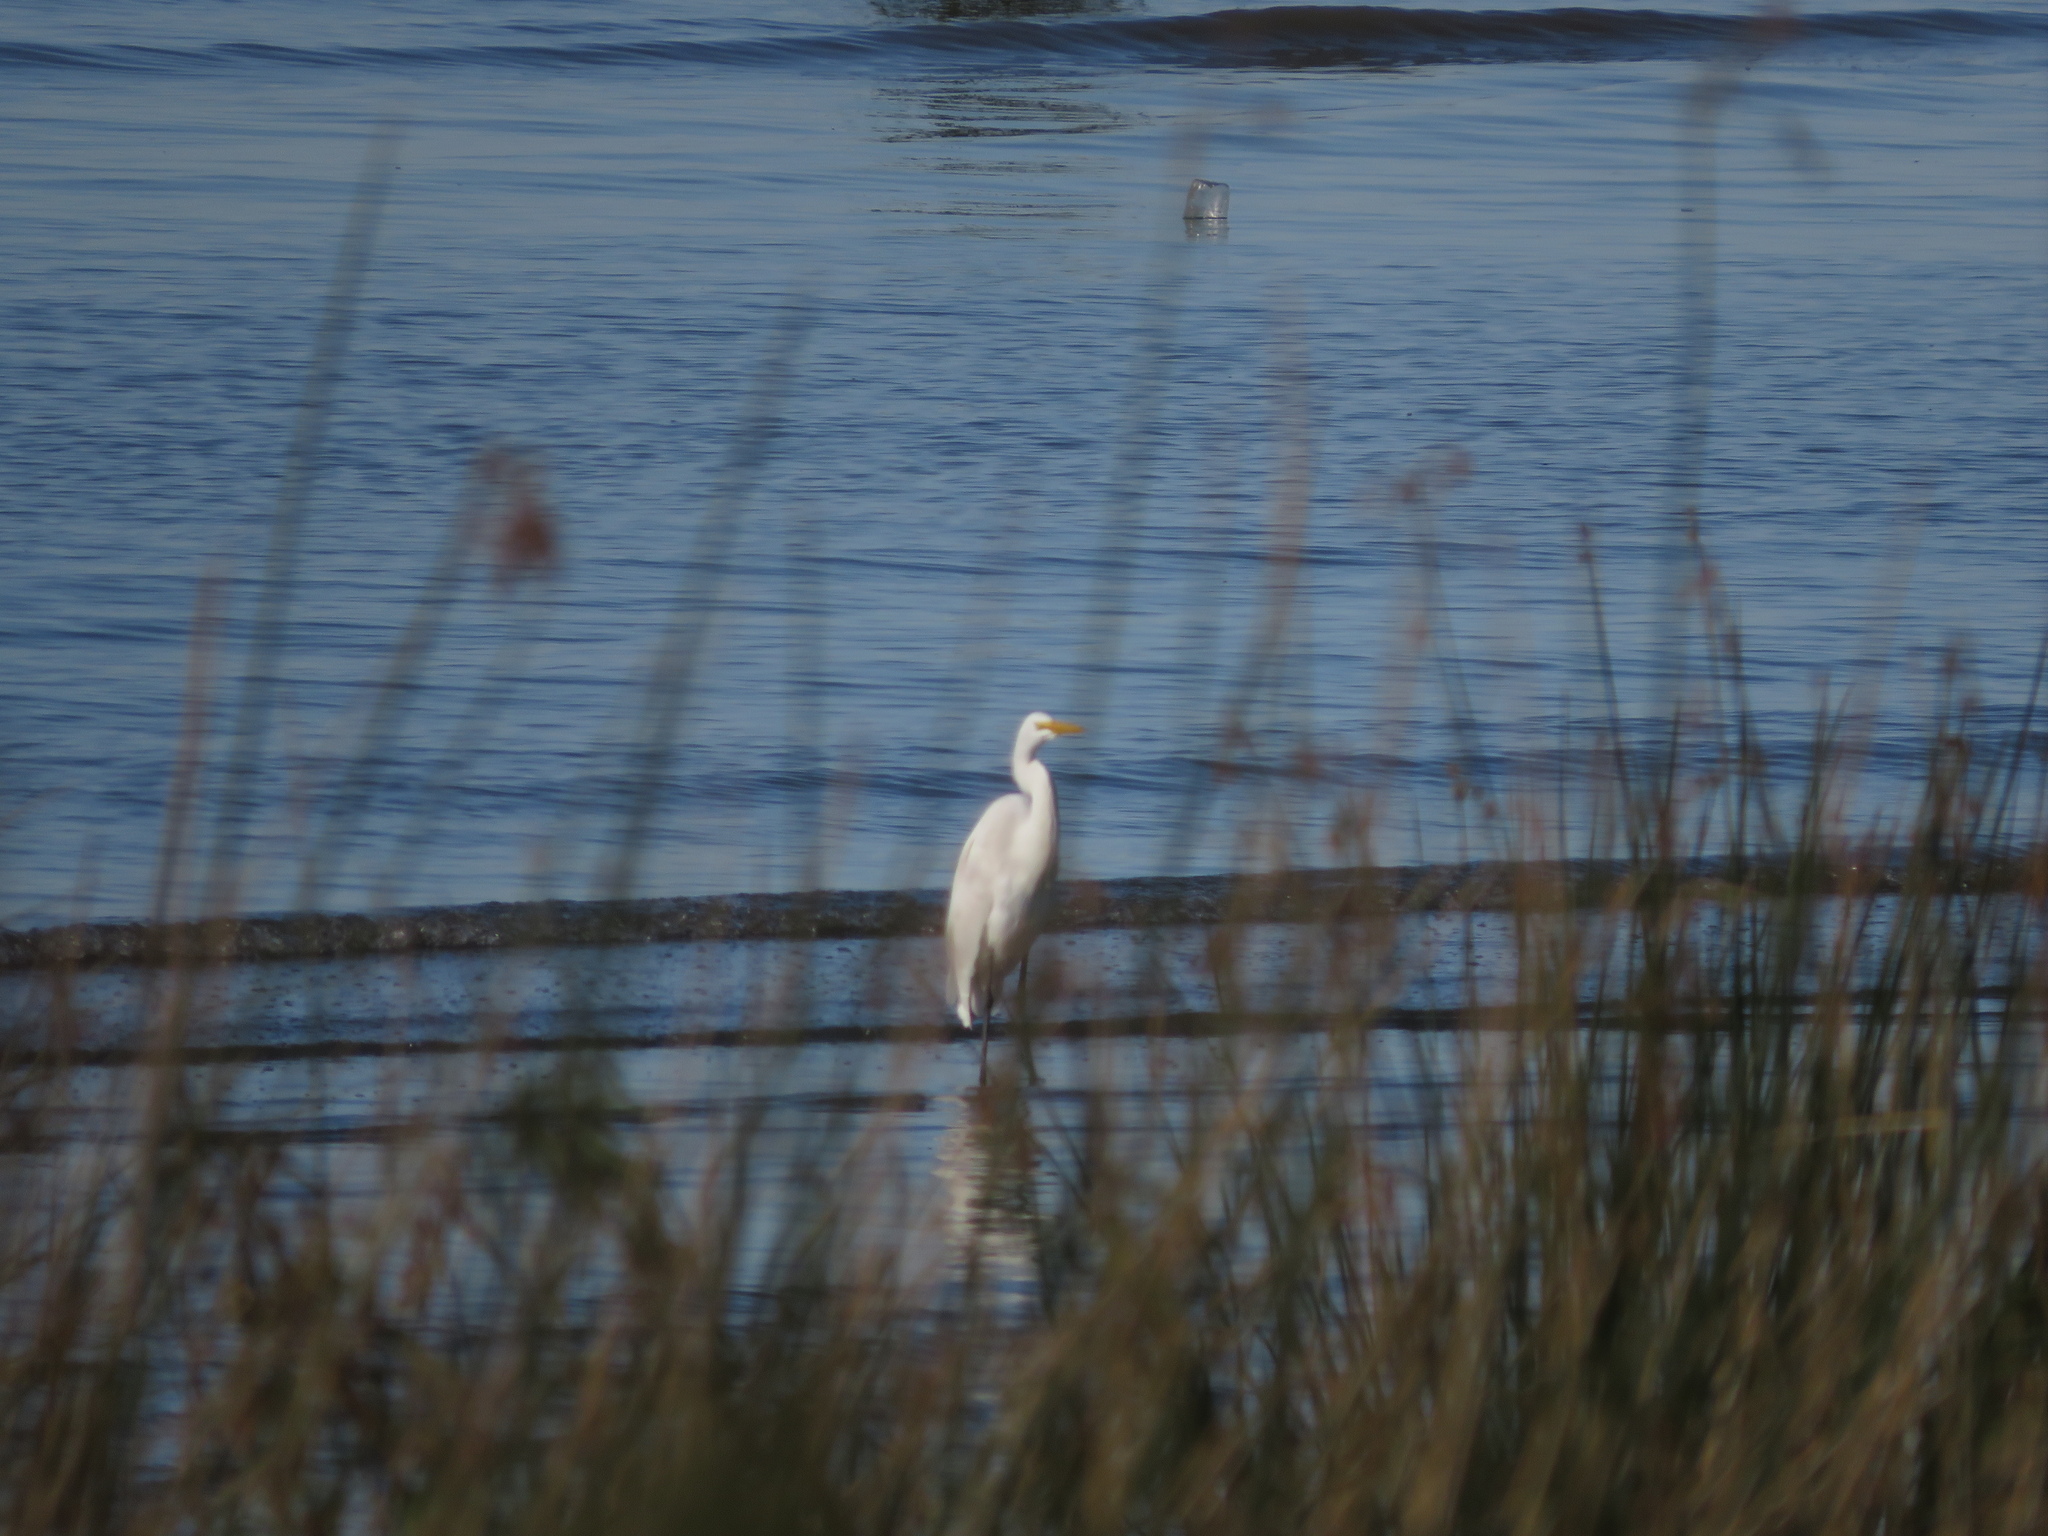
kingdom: Animalia
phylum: Chordata
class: Aves
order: Pelecaniformes
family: Ardeidae
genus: Ardea
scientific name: Ardea alba
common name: Great egret
